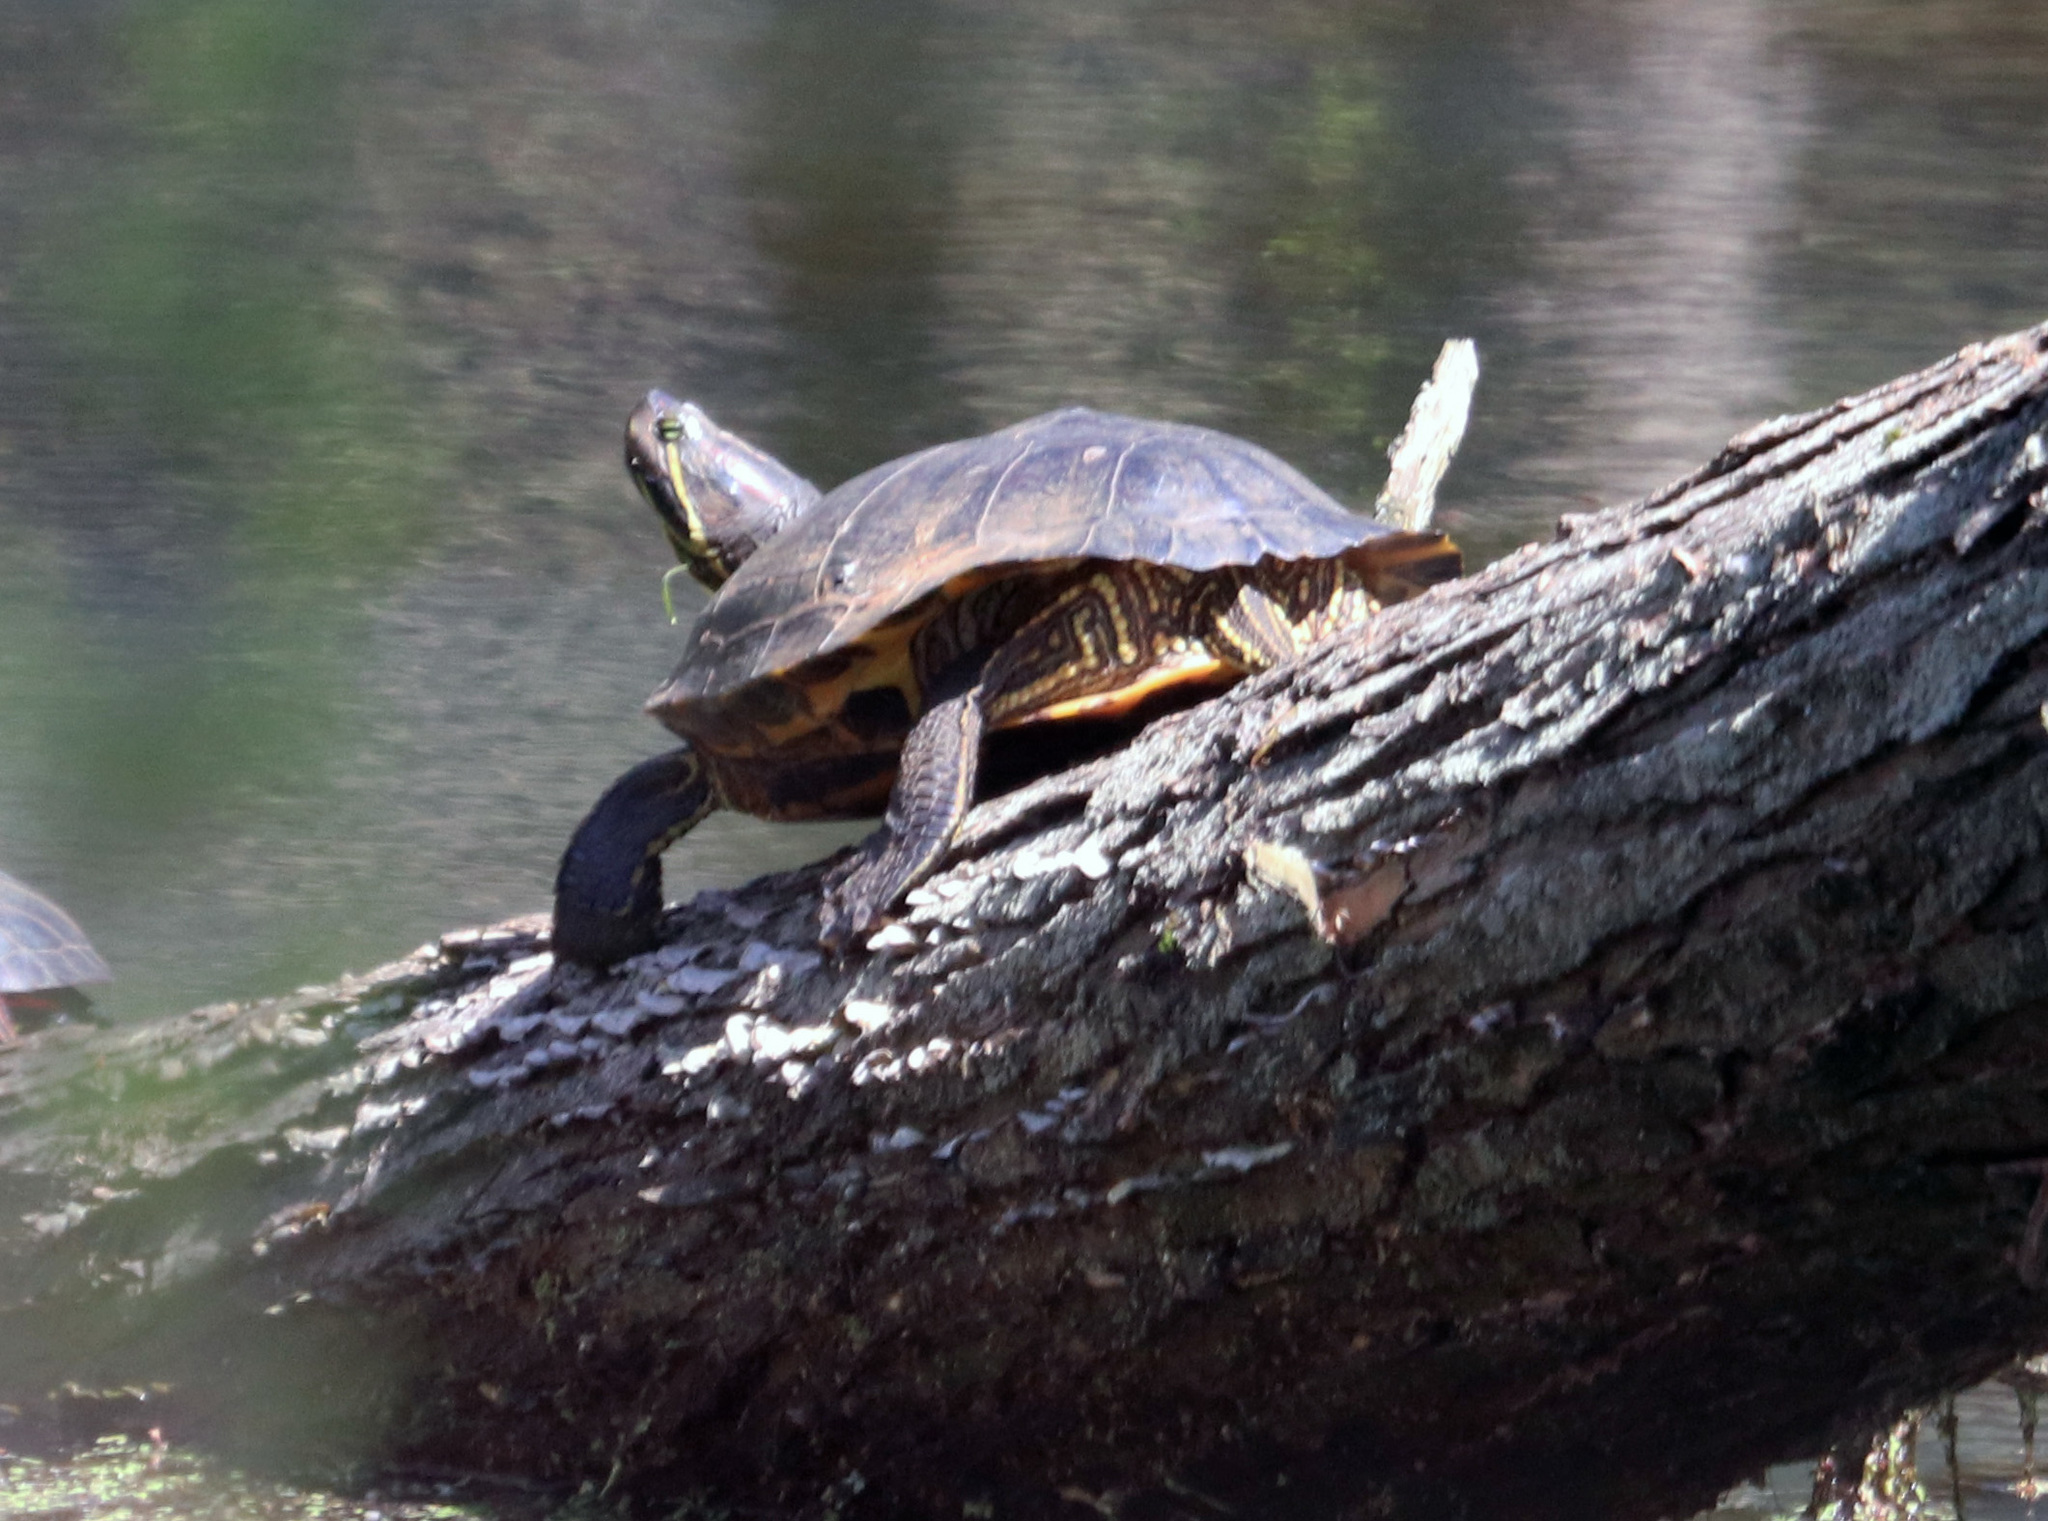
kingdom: Animalia
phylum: Chordata
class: Testudines
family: Emydidae
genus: Trachemys
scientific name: Trachemys scripta
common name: Slider
